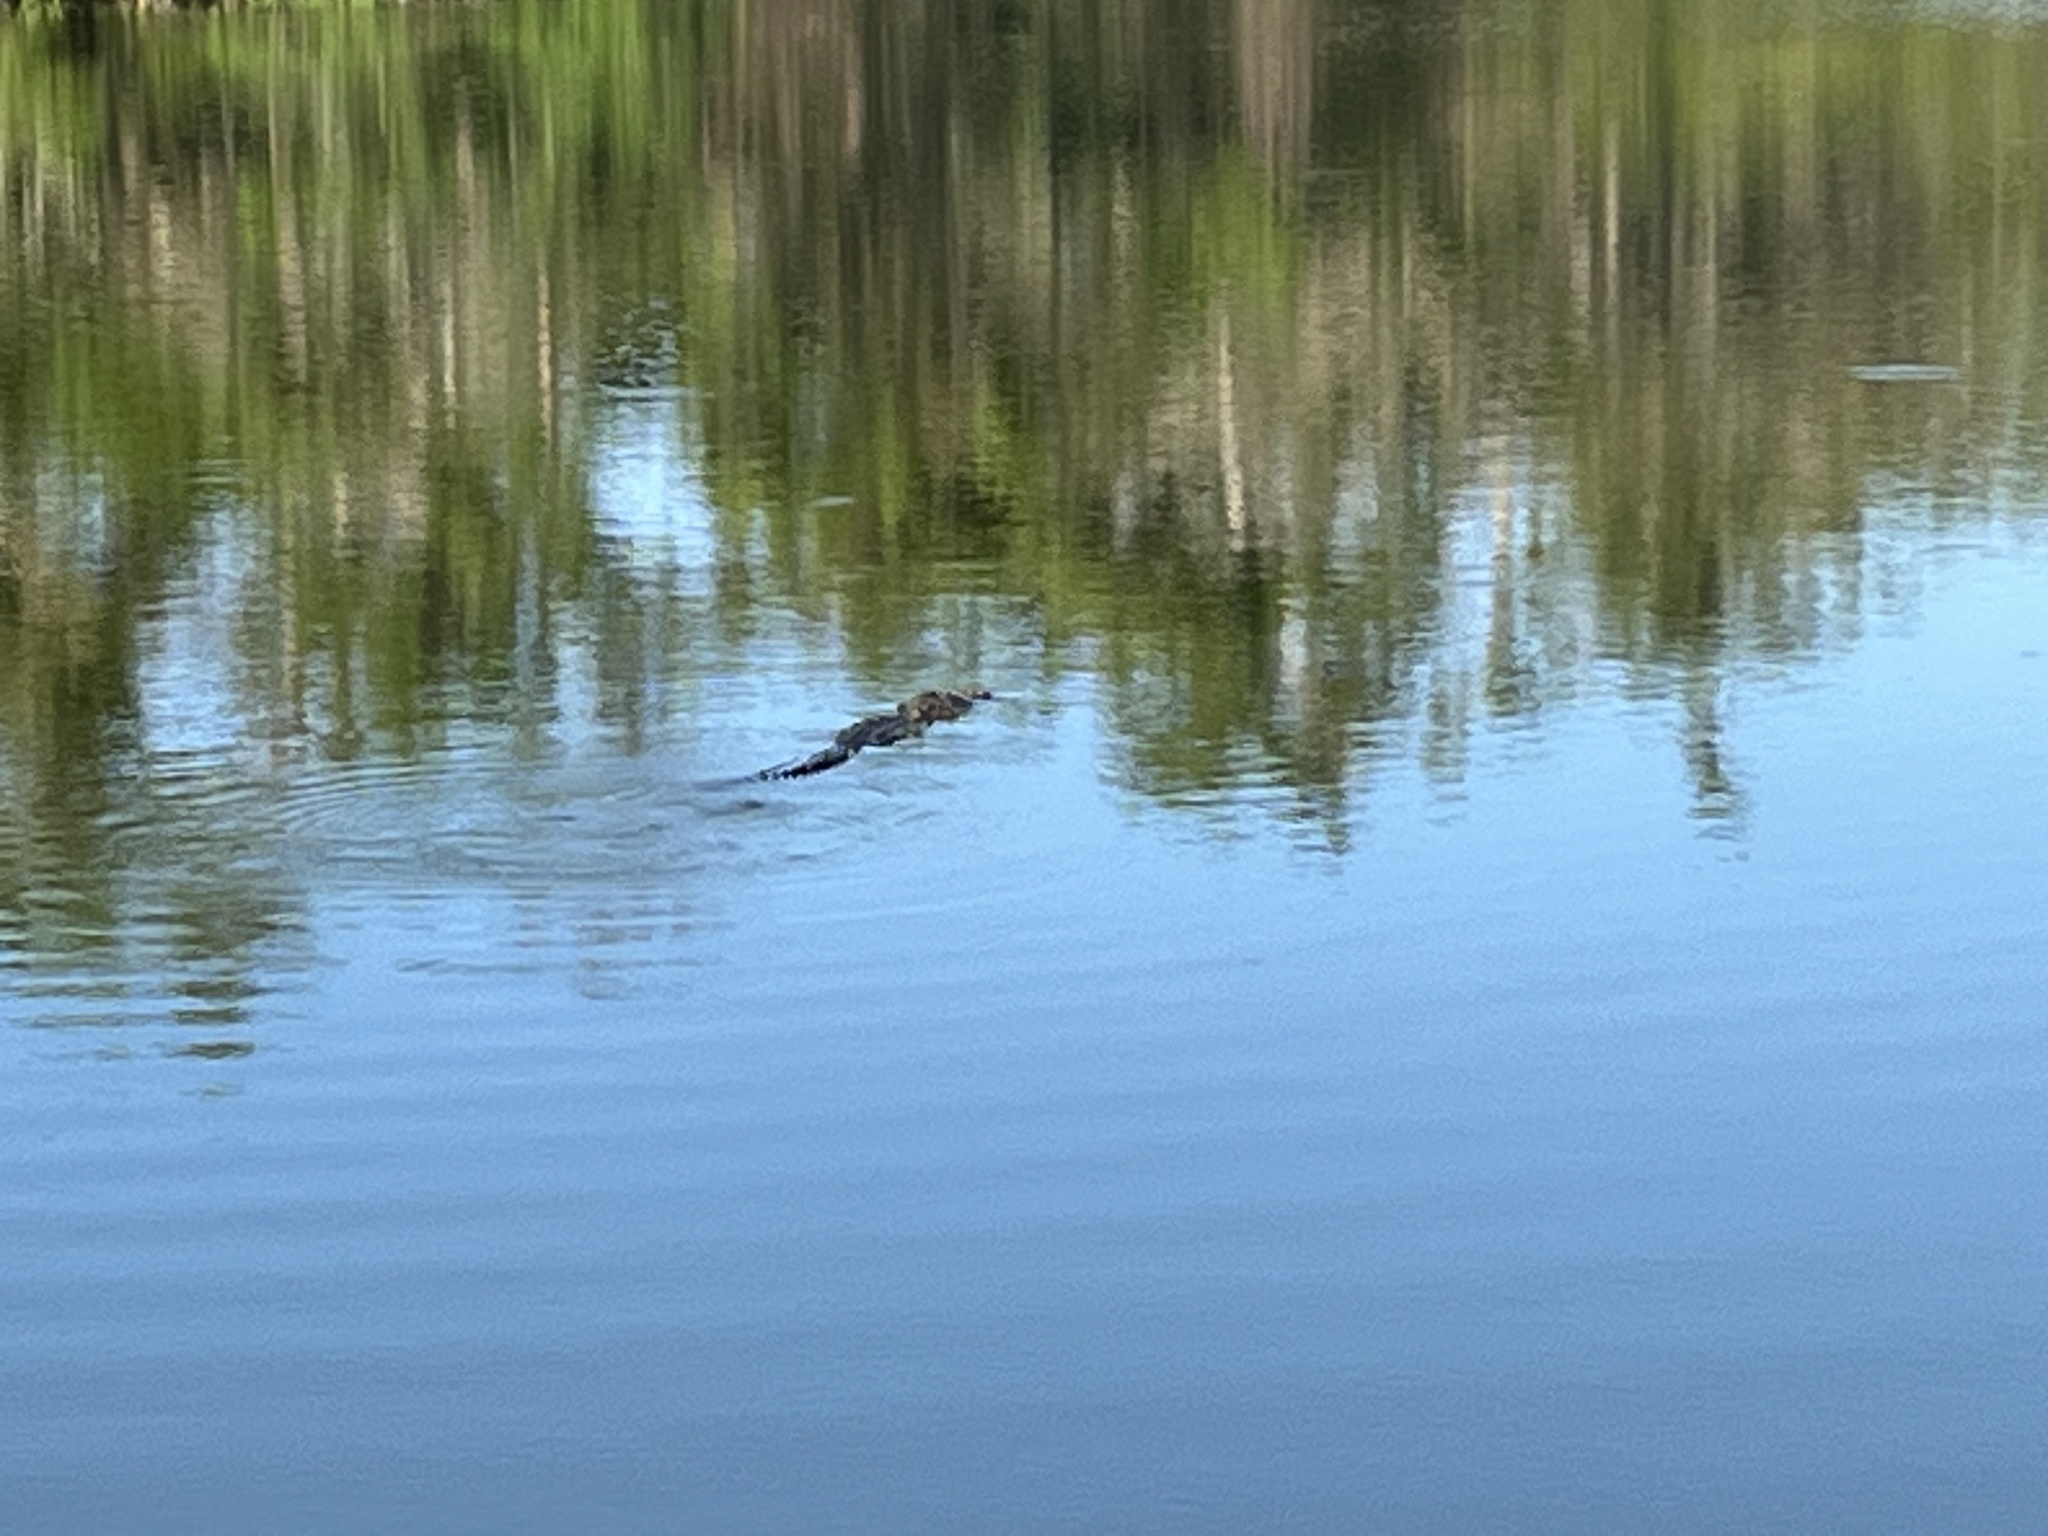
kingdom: Animalia
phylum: Chordata
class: Crocodylia
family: Alligatoridae
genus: Alligator
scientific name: Alligator mississippiensis
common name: American alligator
